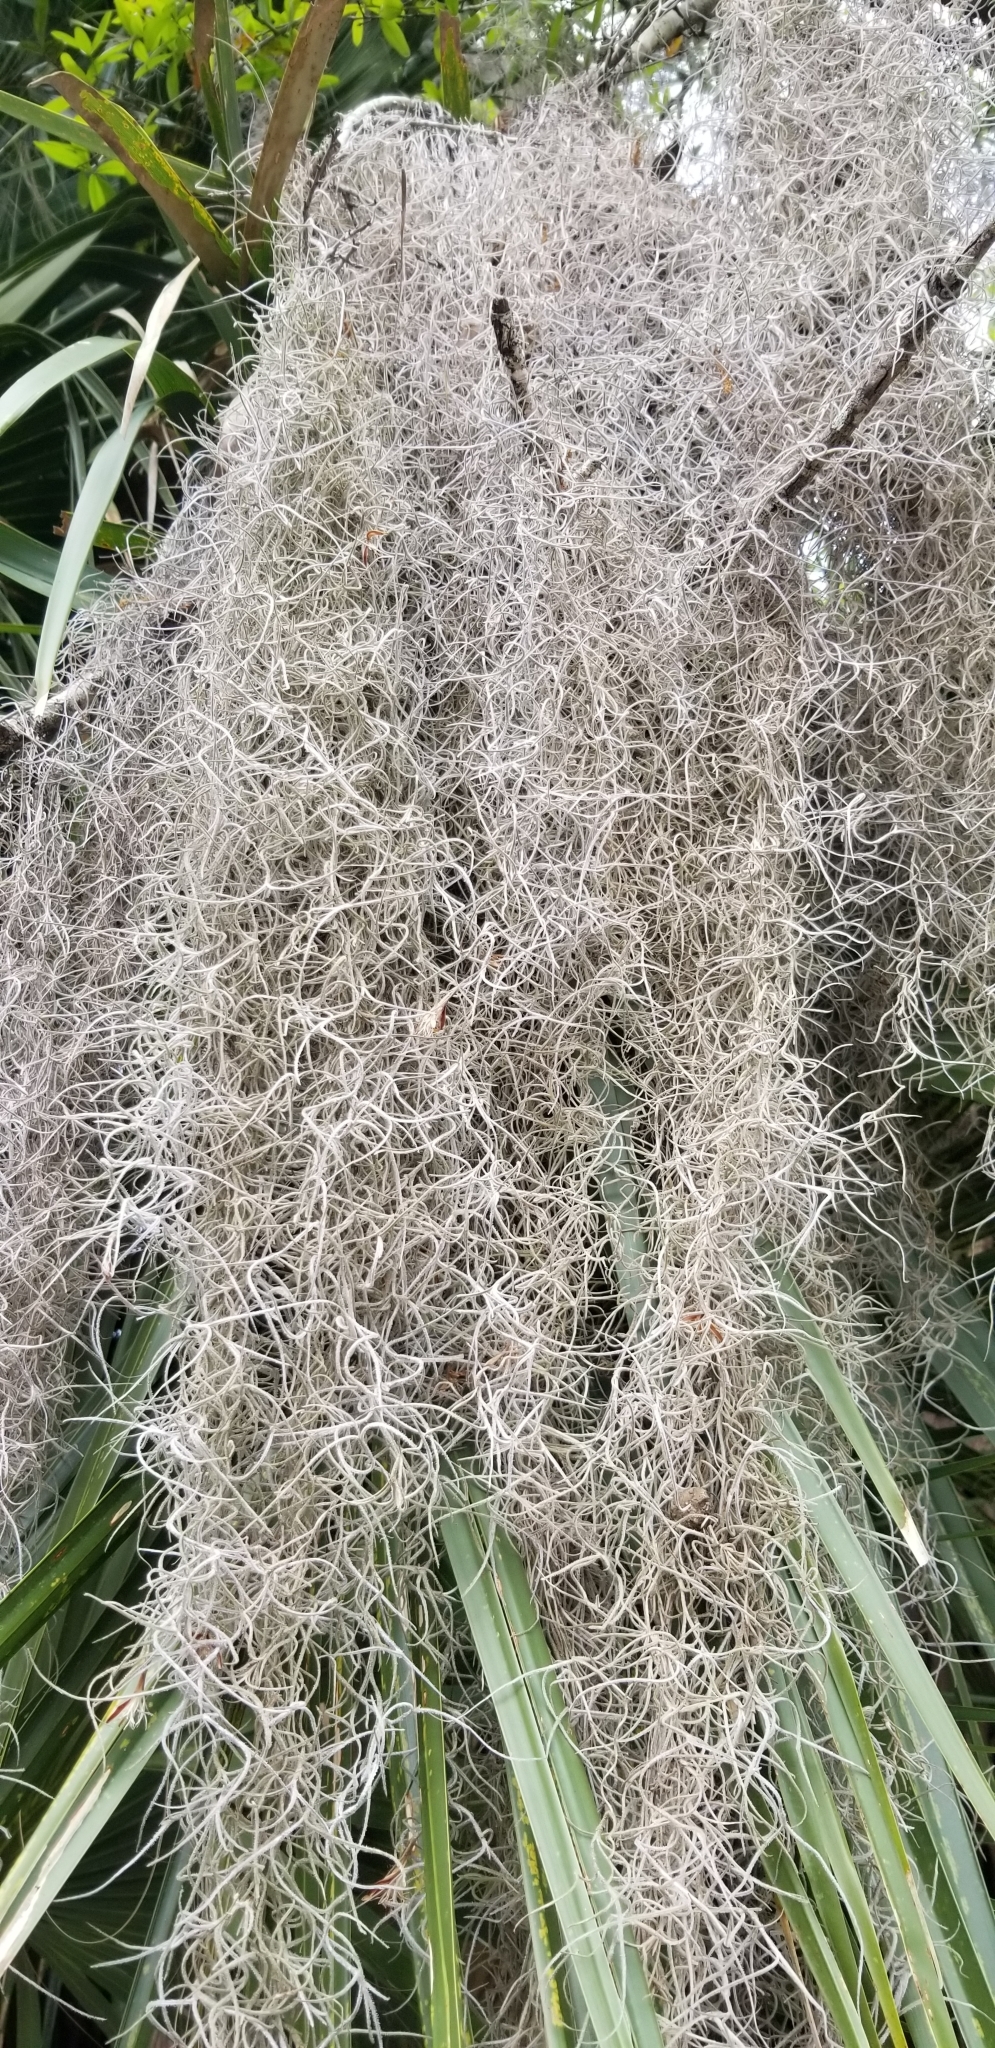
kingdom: Plantae
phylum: Tracheophyta
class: Liliopsida
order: Poales
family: Bromeliaceae
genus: Tillandsia
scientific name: Tillandsia usneoides
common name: Spanish moss
